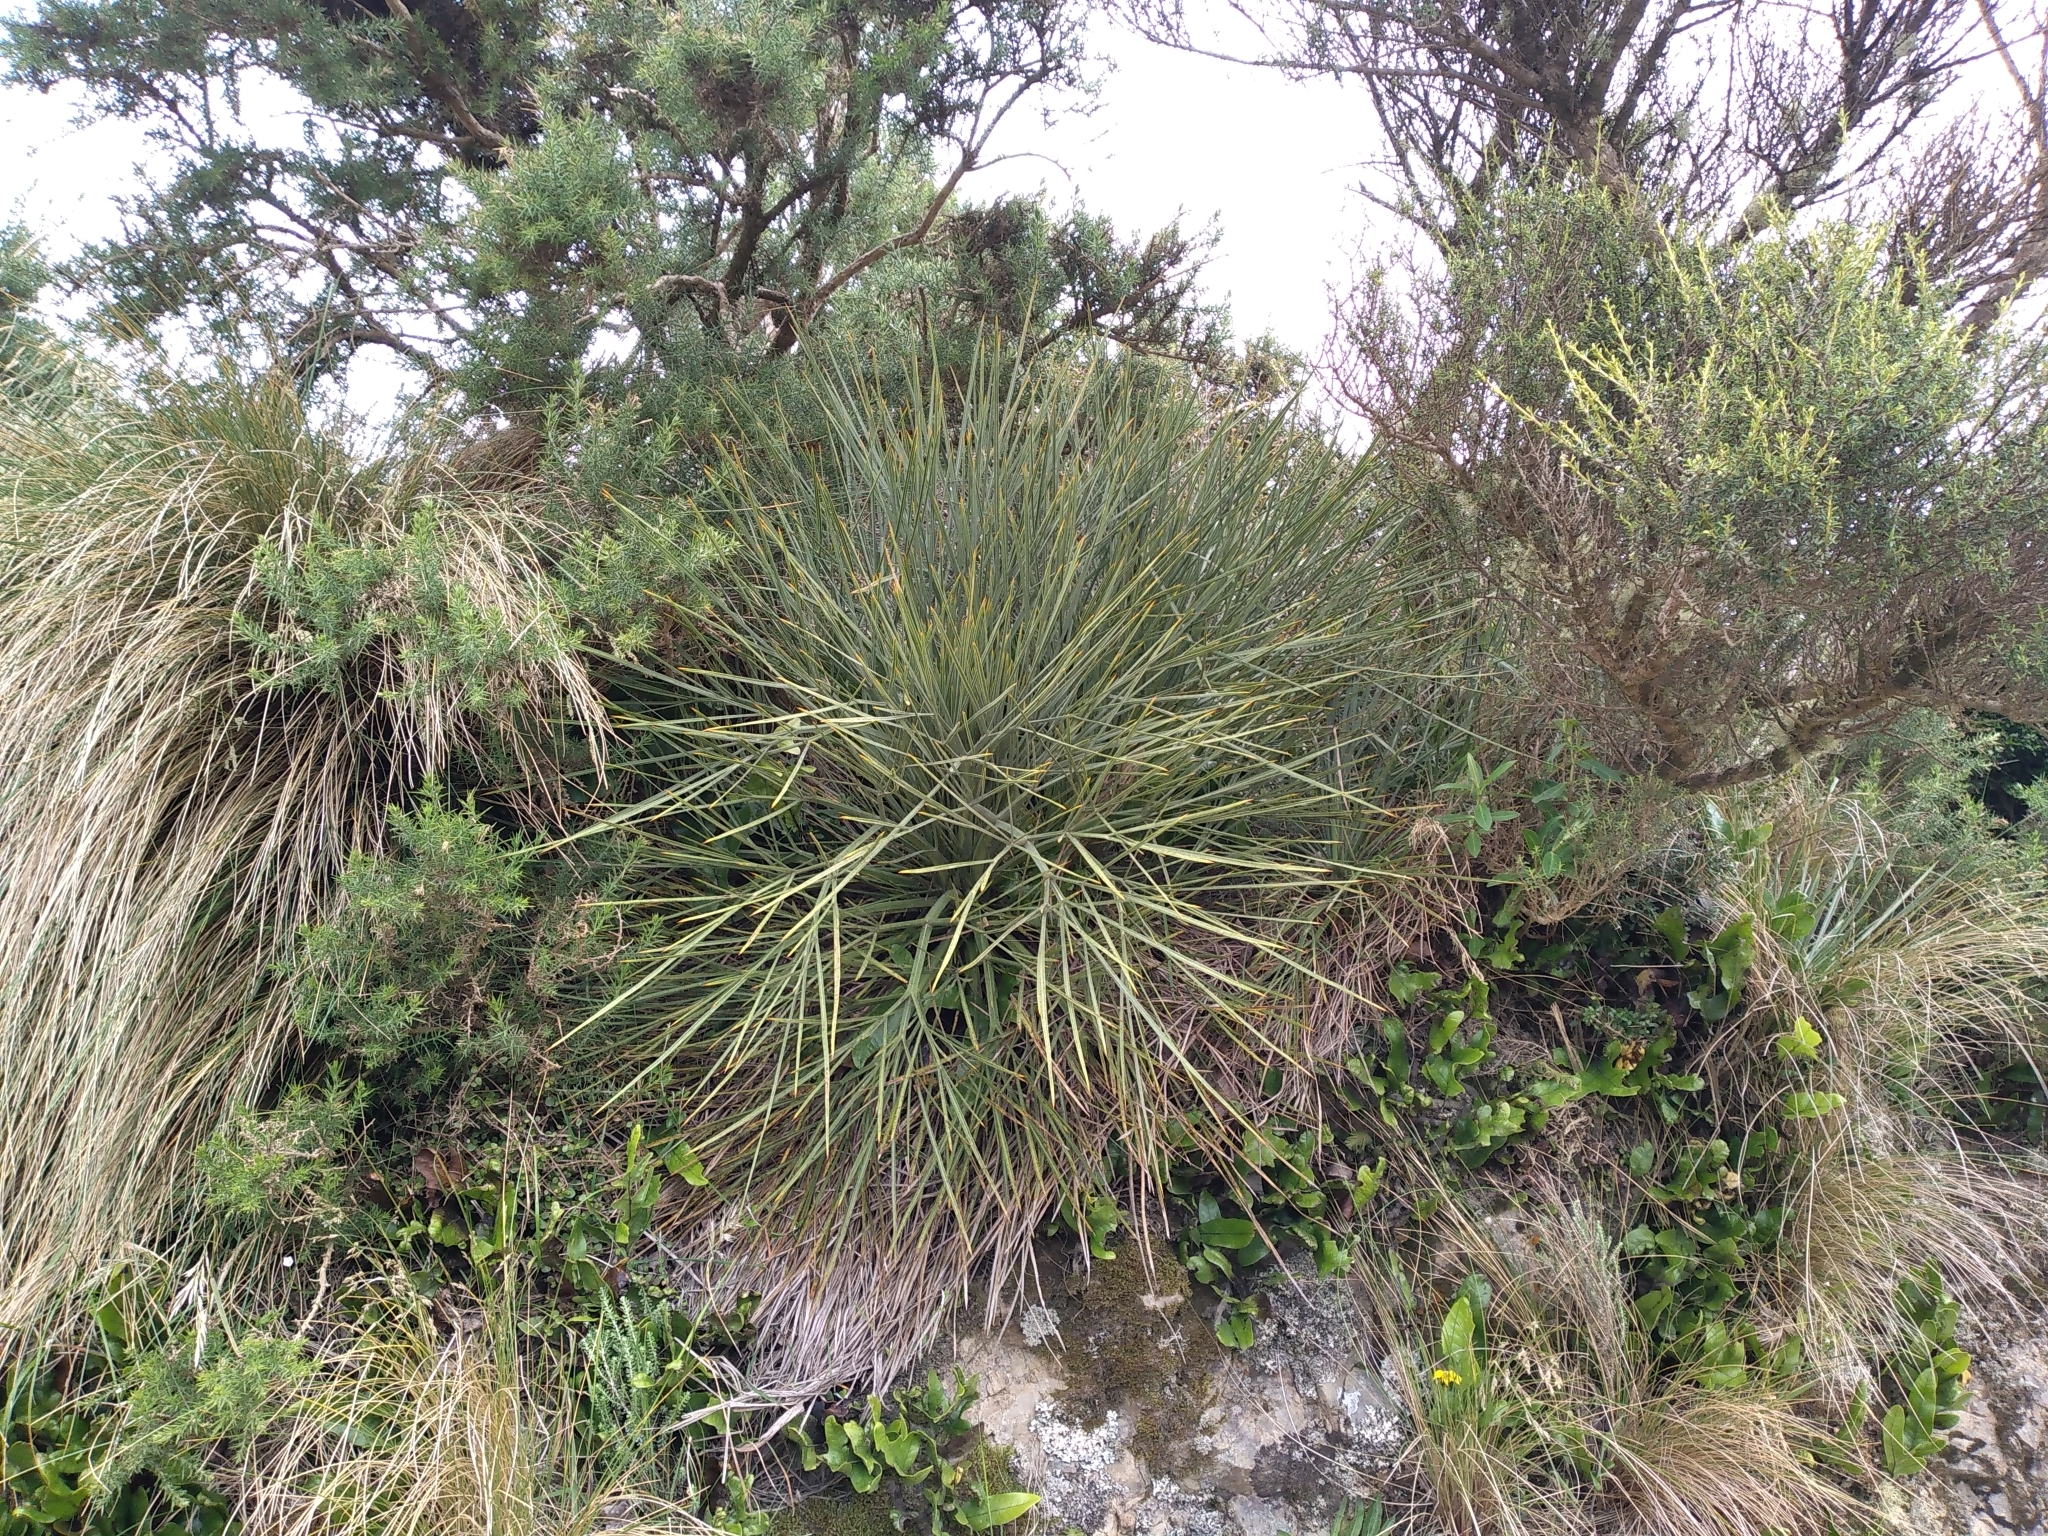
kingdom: Plantae
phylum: Tracheophyta
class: Magnoliopsida
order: Apiales
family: Apiaceae
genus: Aciphylla
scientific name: Aciphylla squarrosa
